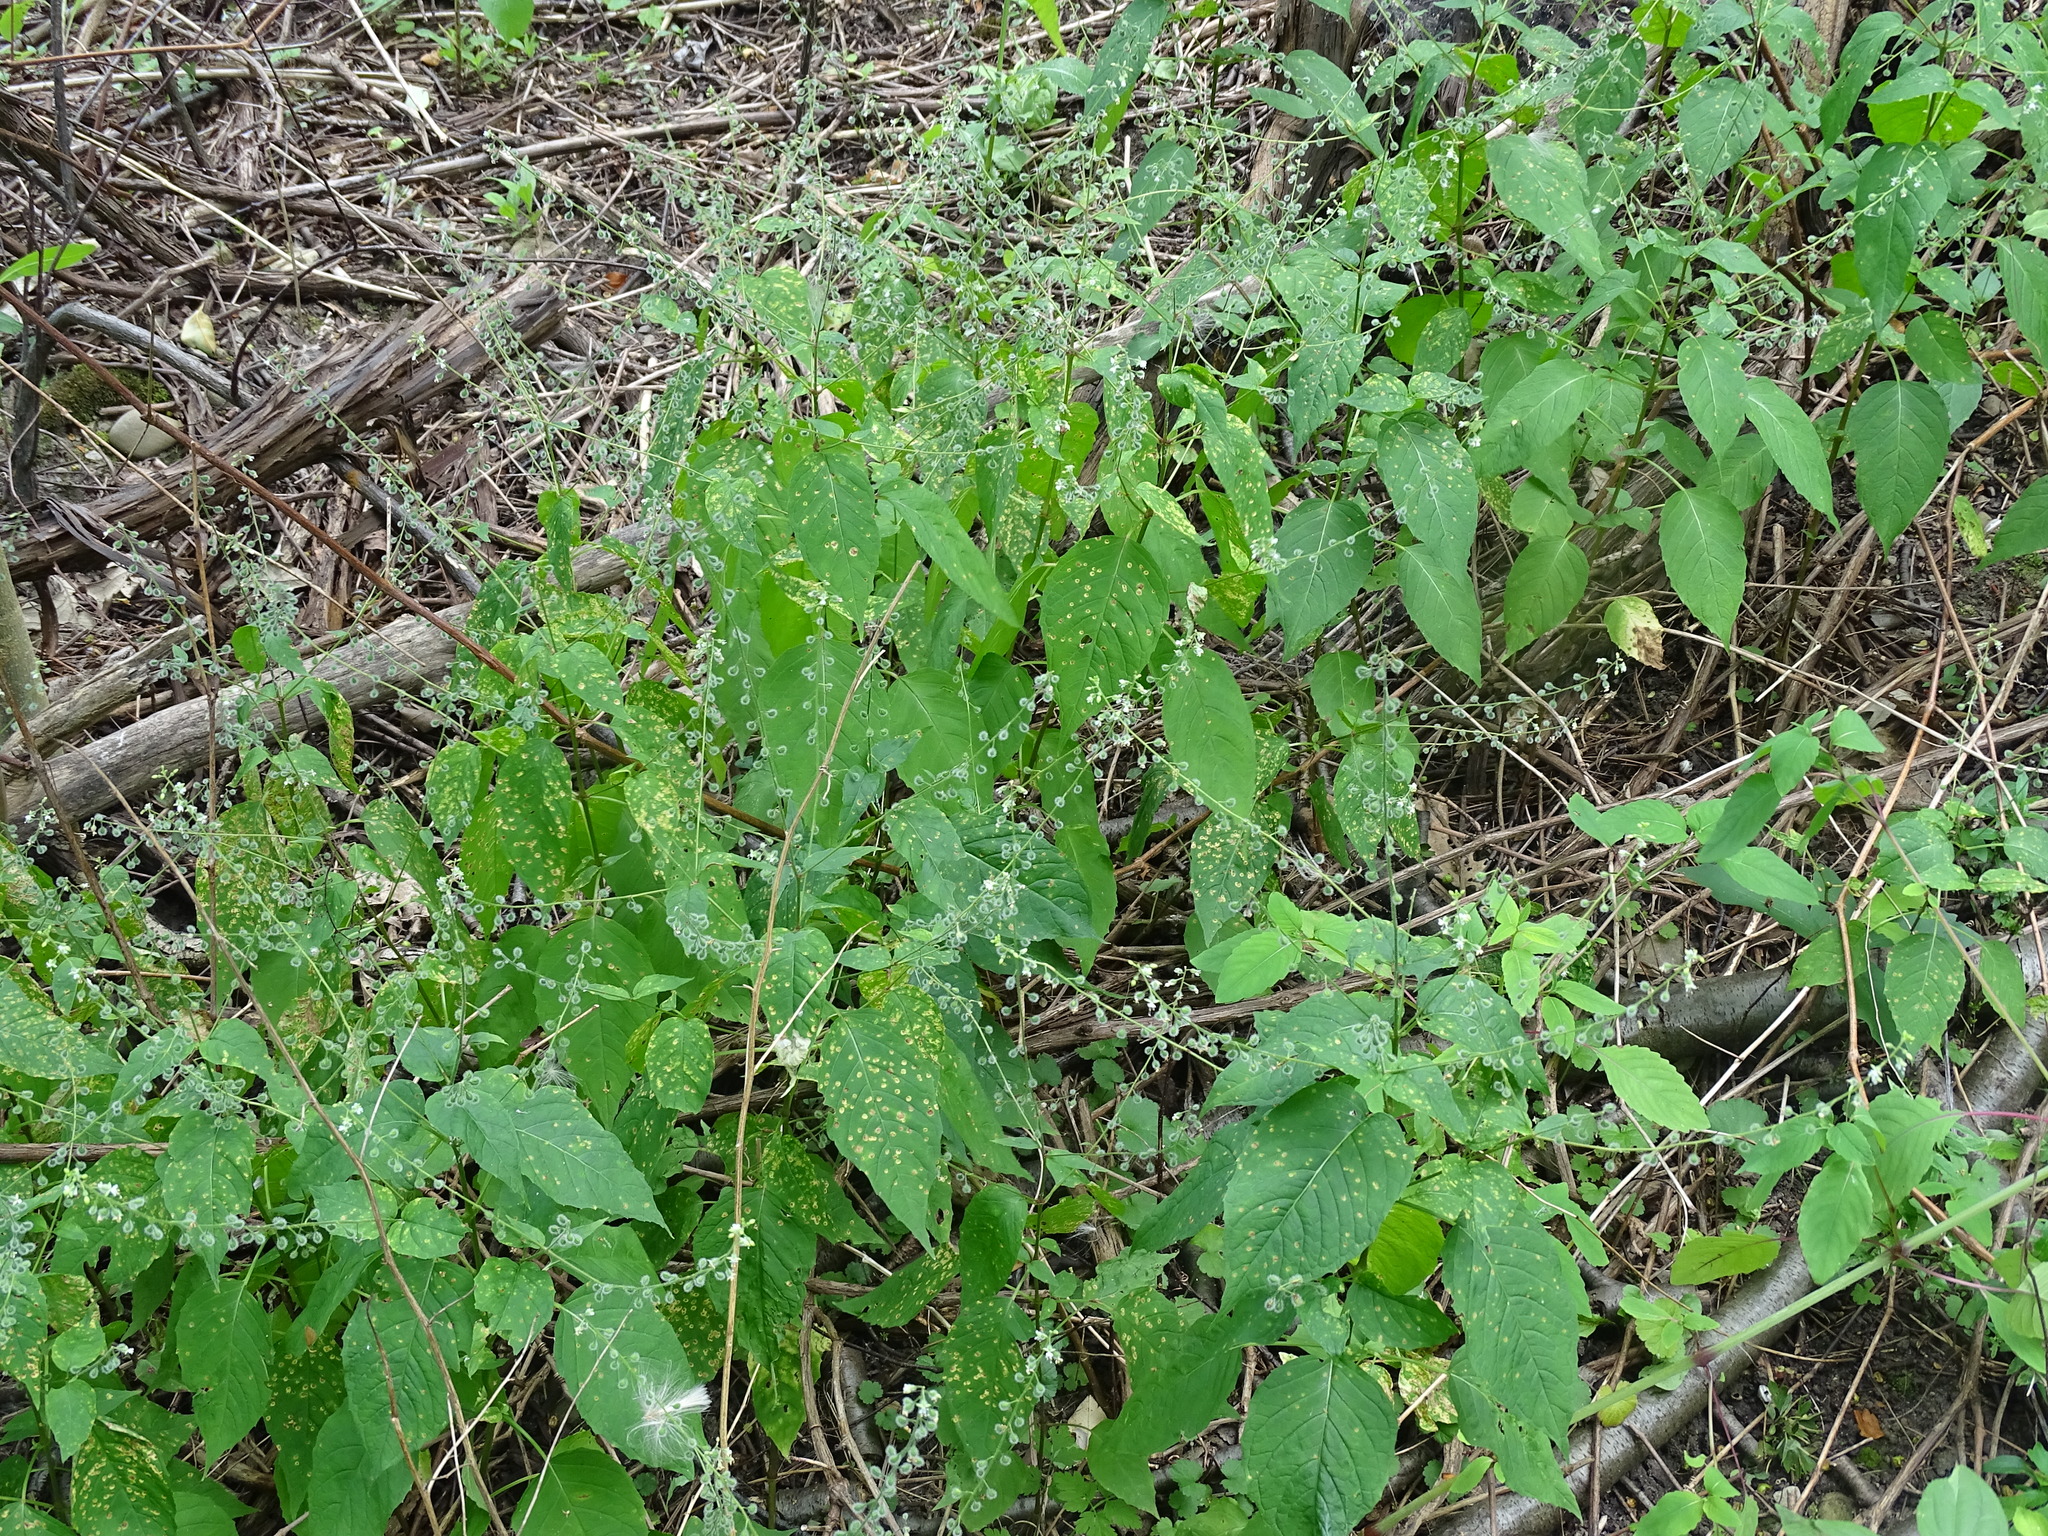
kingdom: Plantae
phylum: Tracheophyta
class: Magnoliopsida
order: Myrtales
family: Onagraceae
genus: Circaea
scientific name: Circaea canadensis
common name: Broad-leaved enchanter's nightshade
